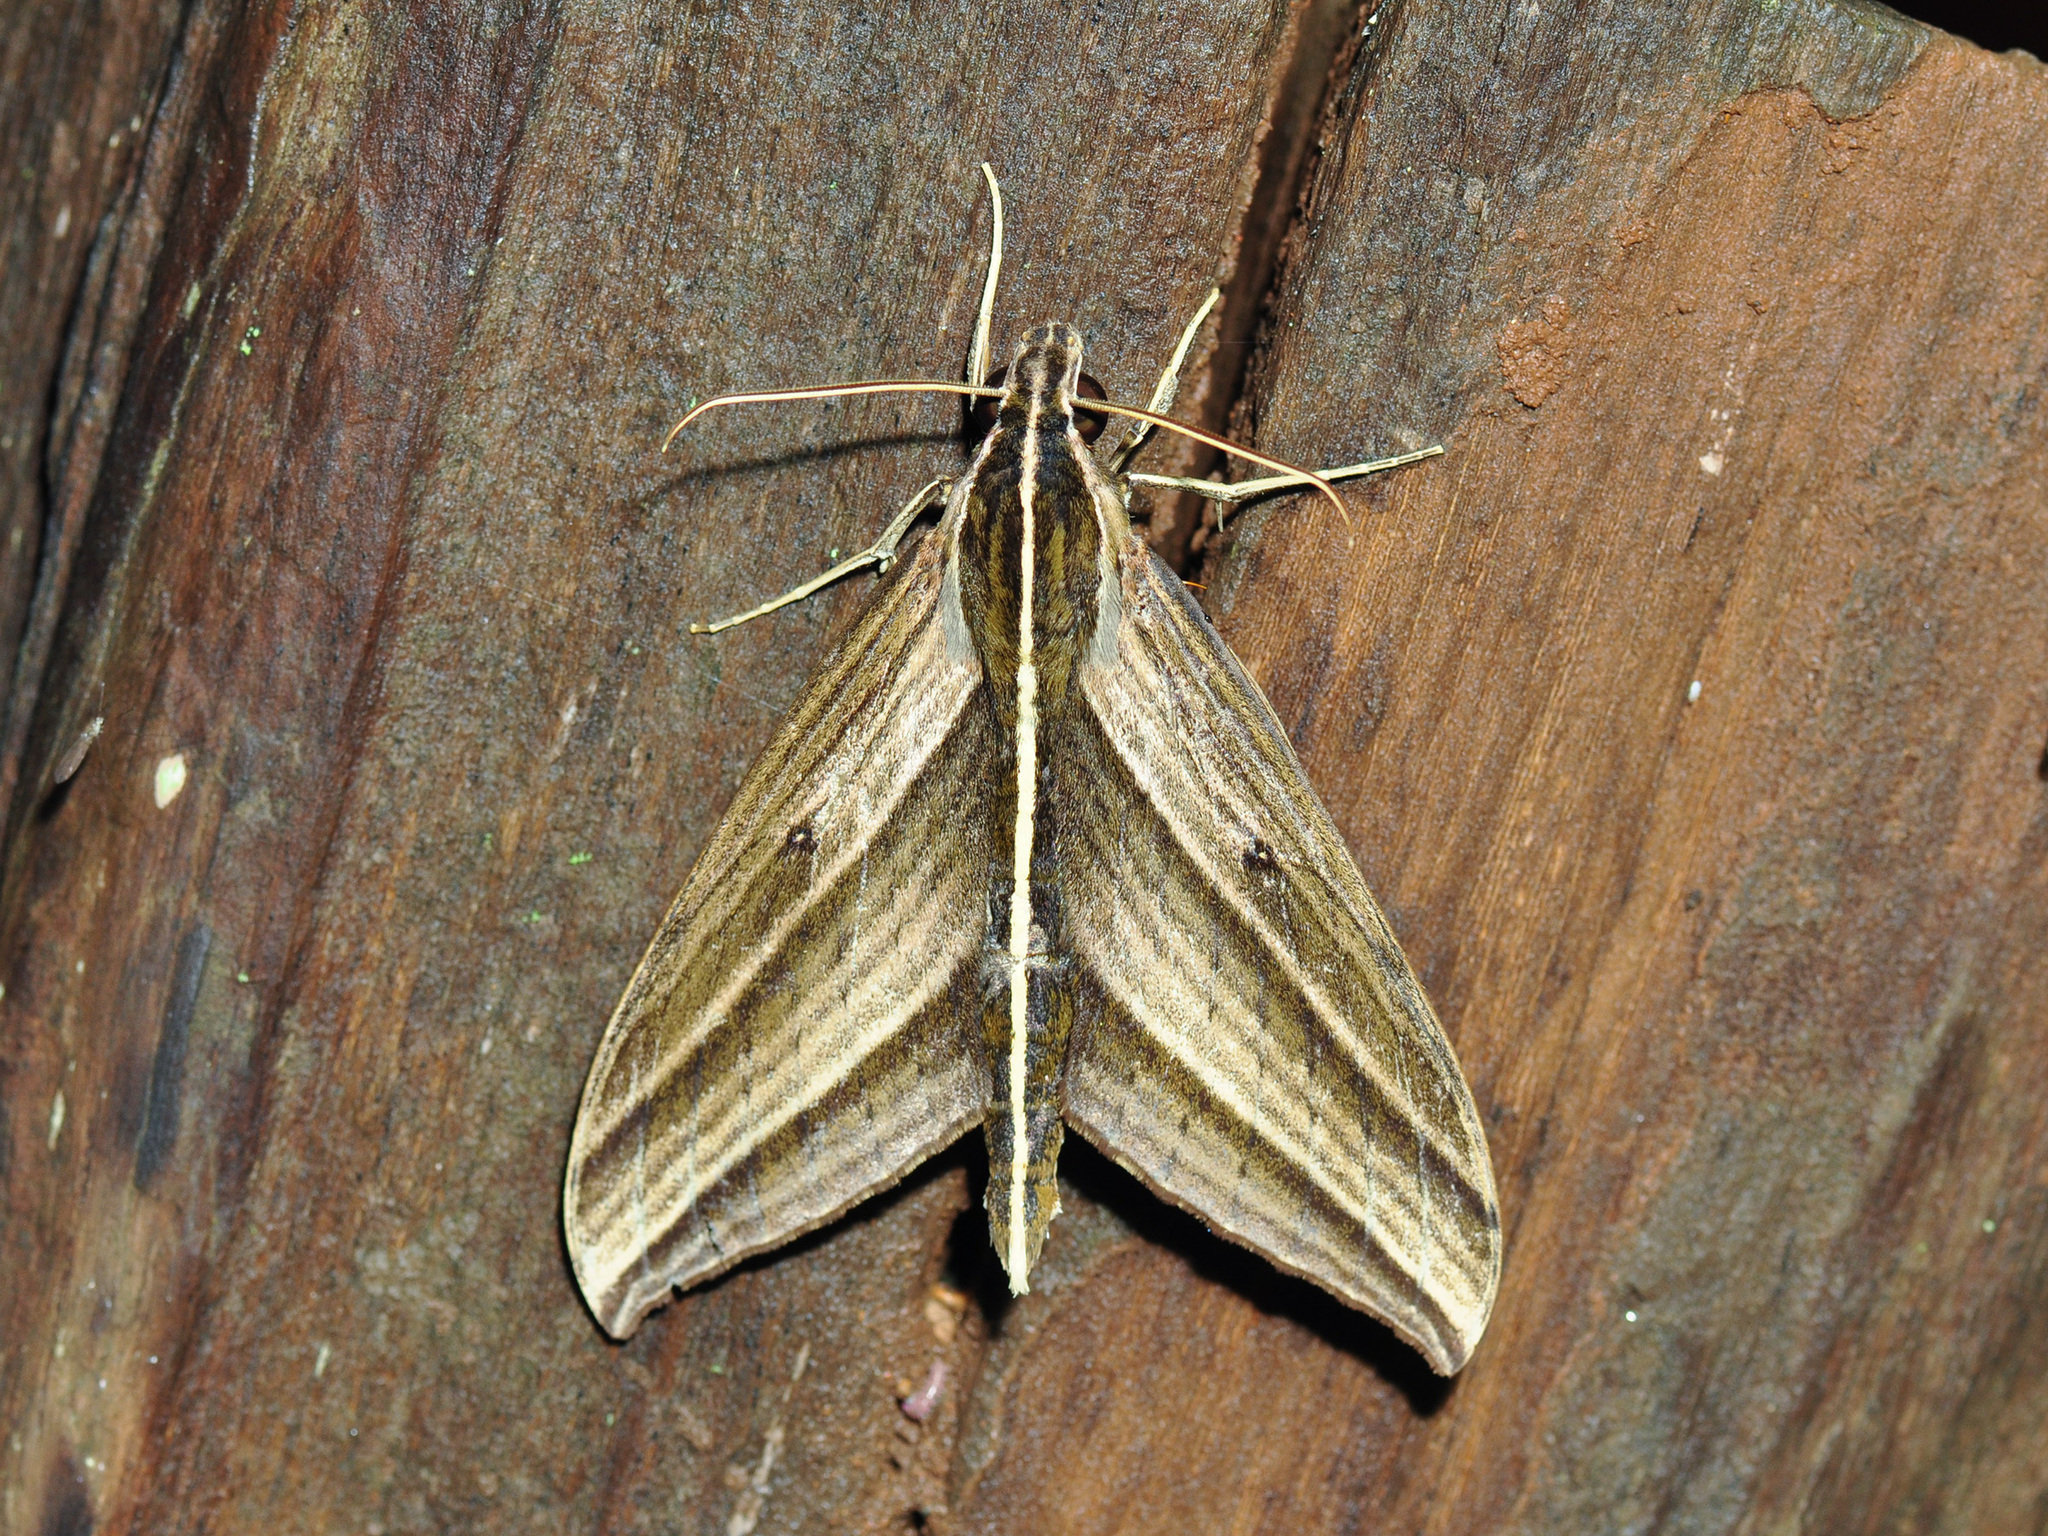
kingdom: Animalia
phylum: Arthropoda
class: Insecta
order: Lepidoptera
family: Sphingidae
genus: Elibia
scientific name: Elibia dolichus
